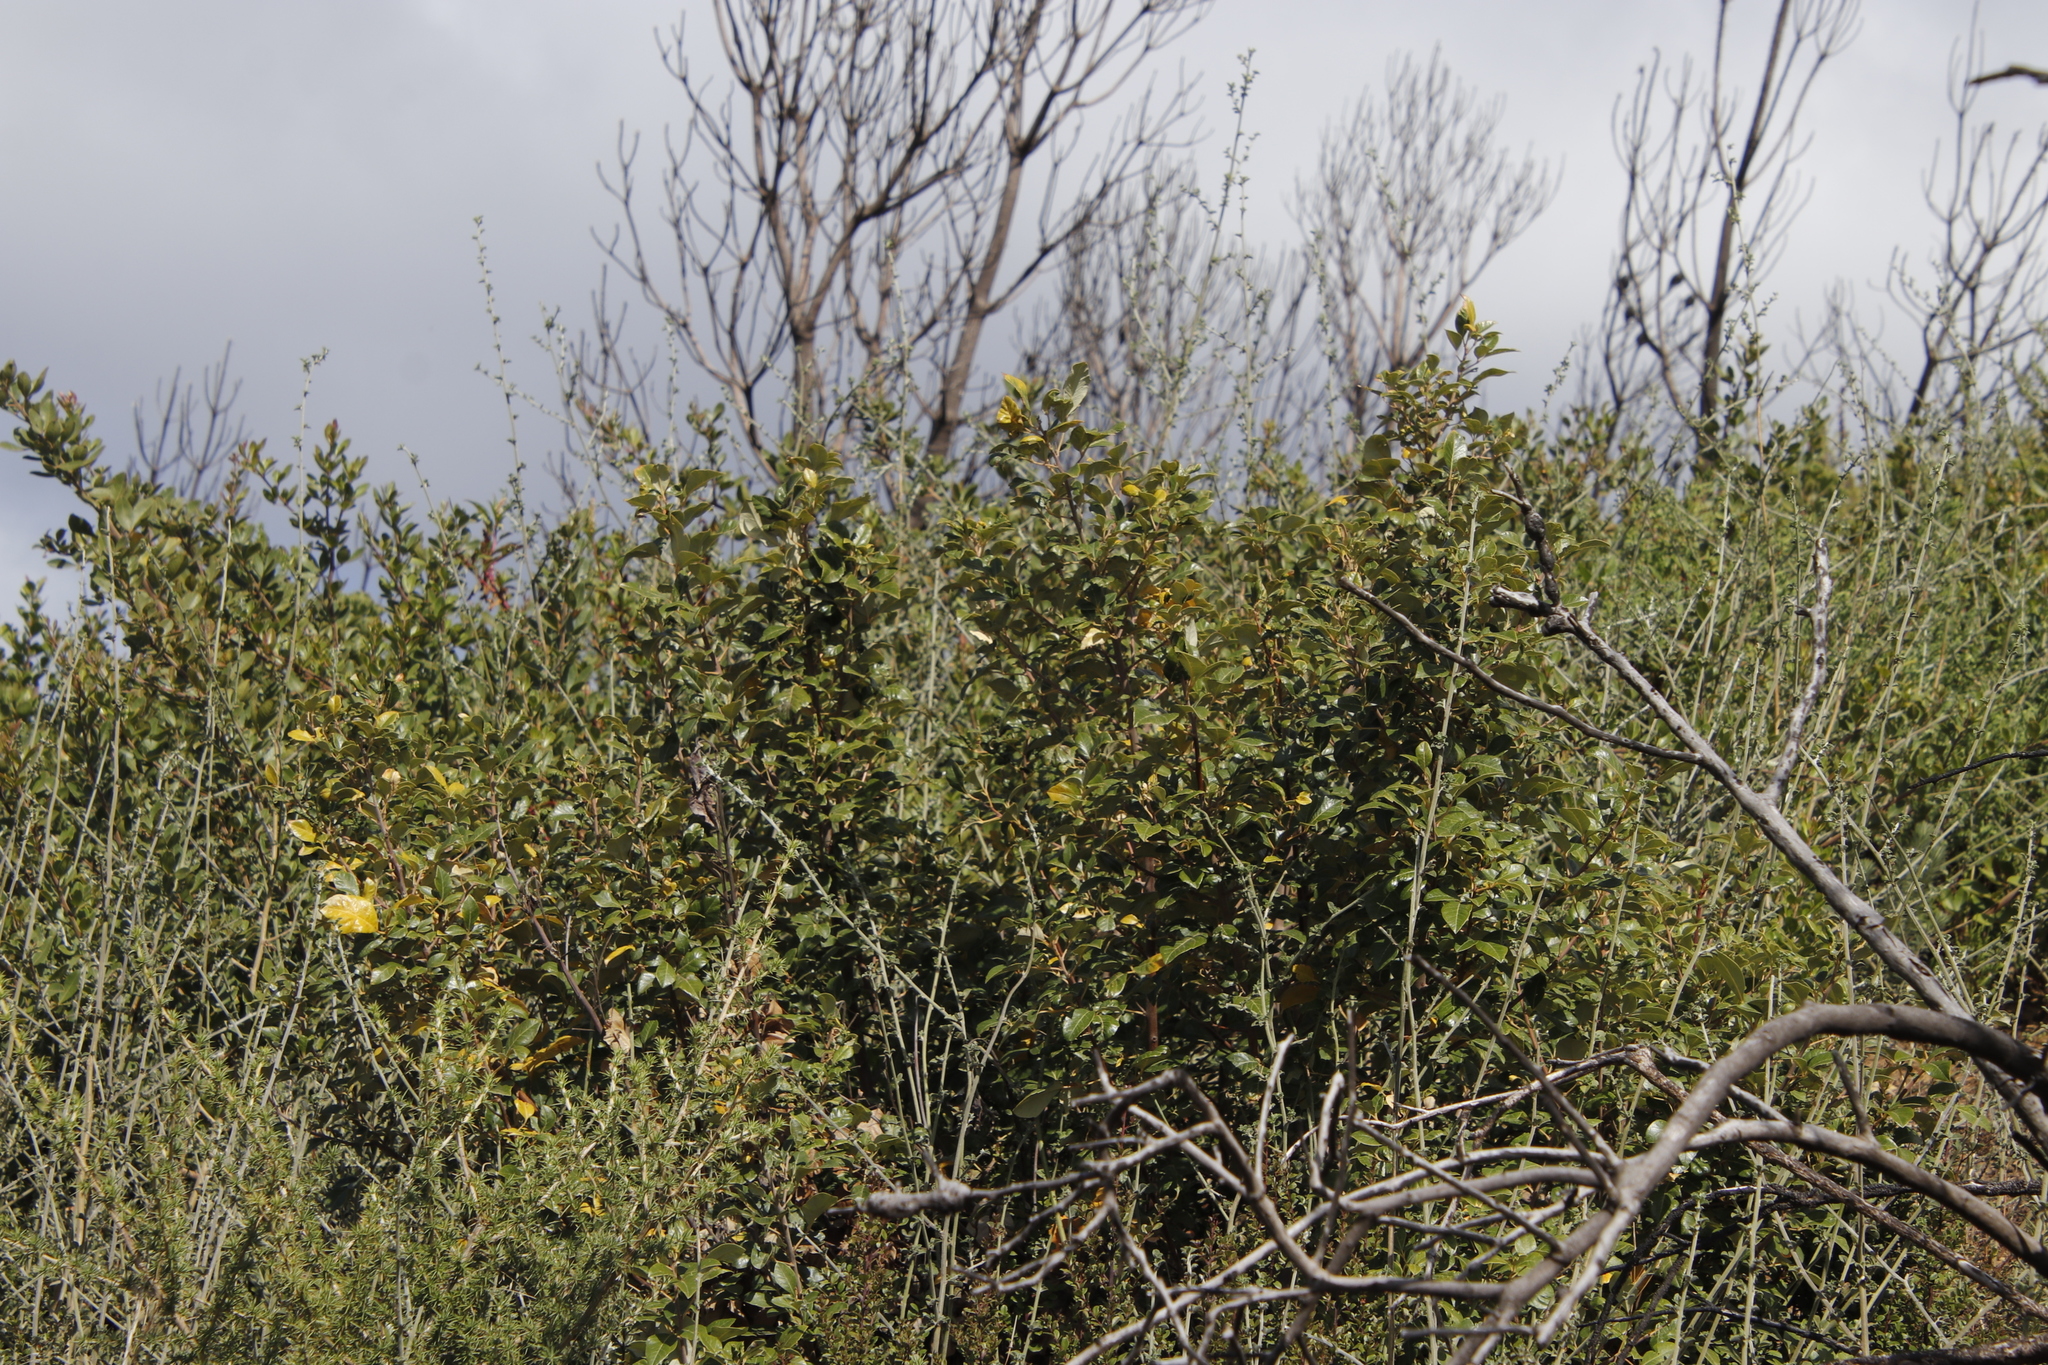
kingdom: Plantae
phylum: Tracheophyta
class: Magnoliopsida
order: Sapindales
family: Anacardiaceae
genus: Searsia
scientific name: Searsia tomentosa
